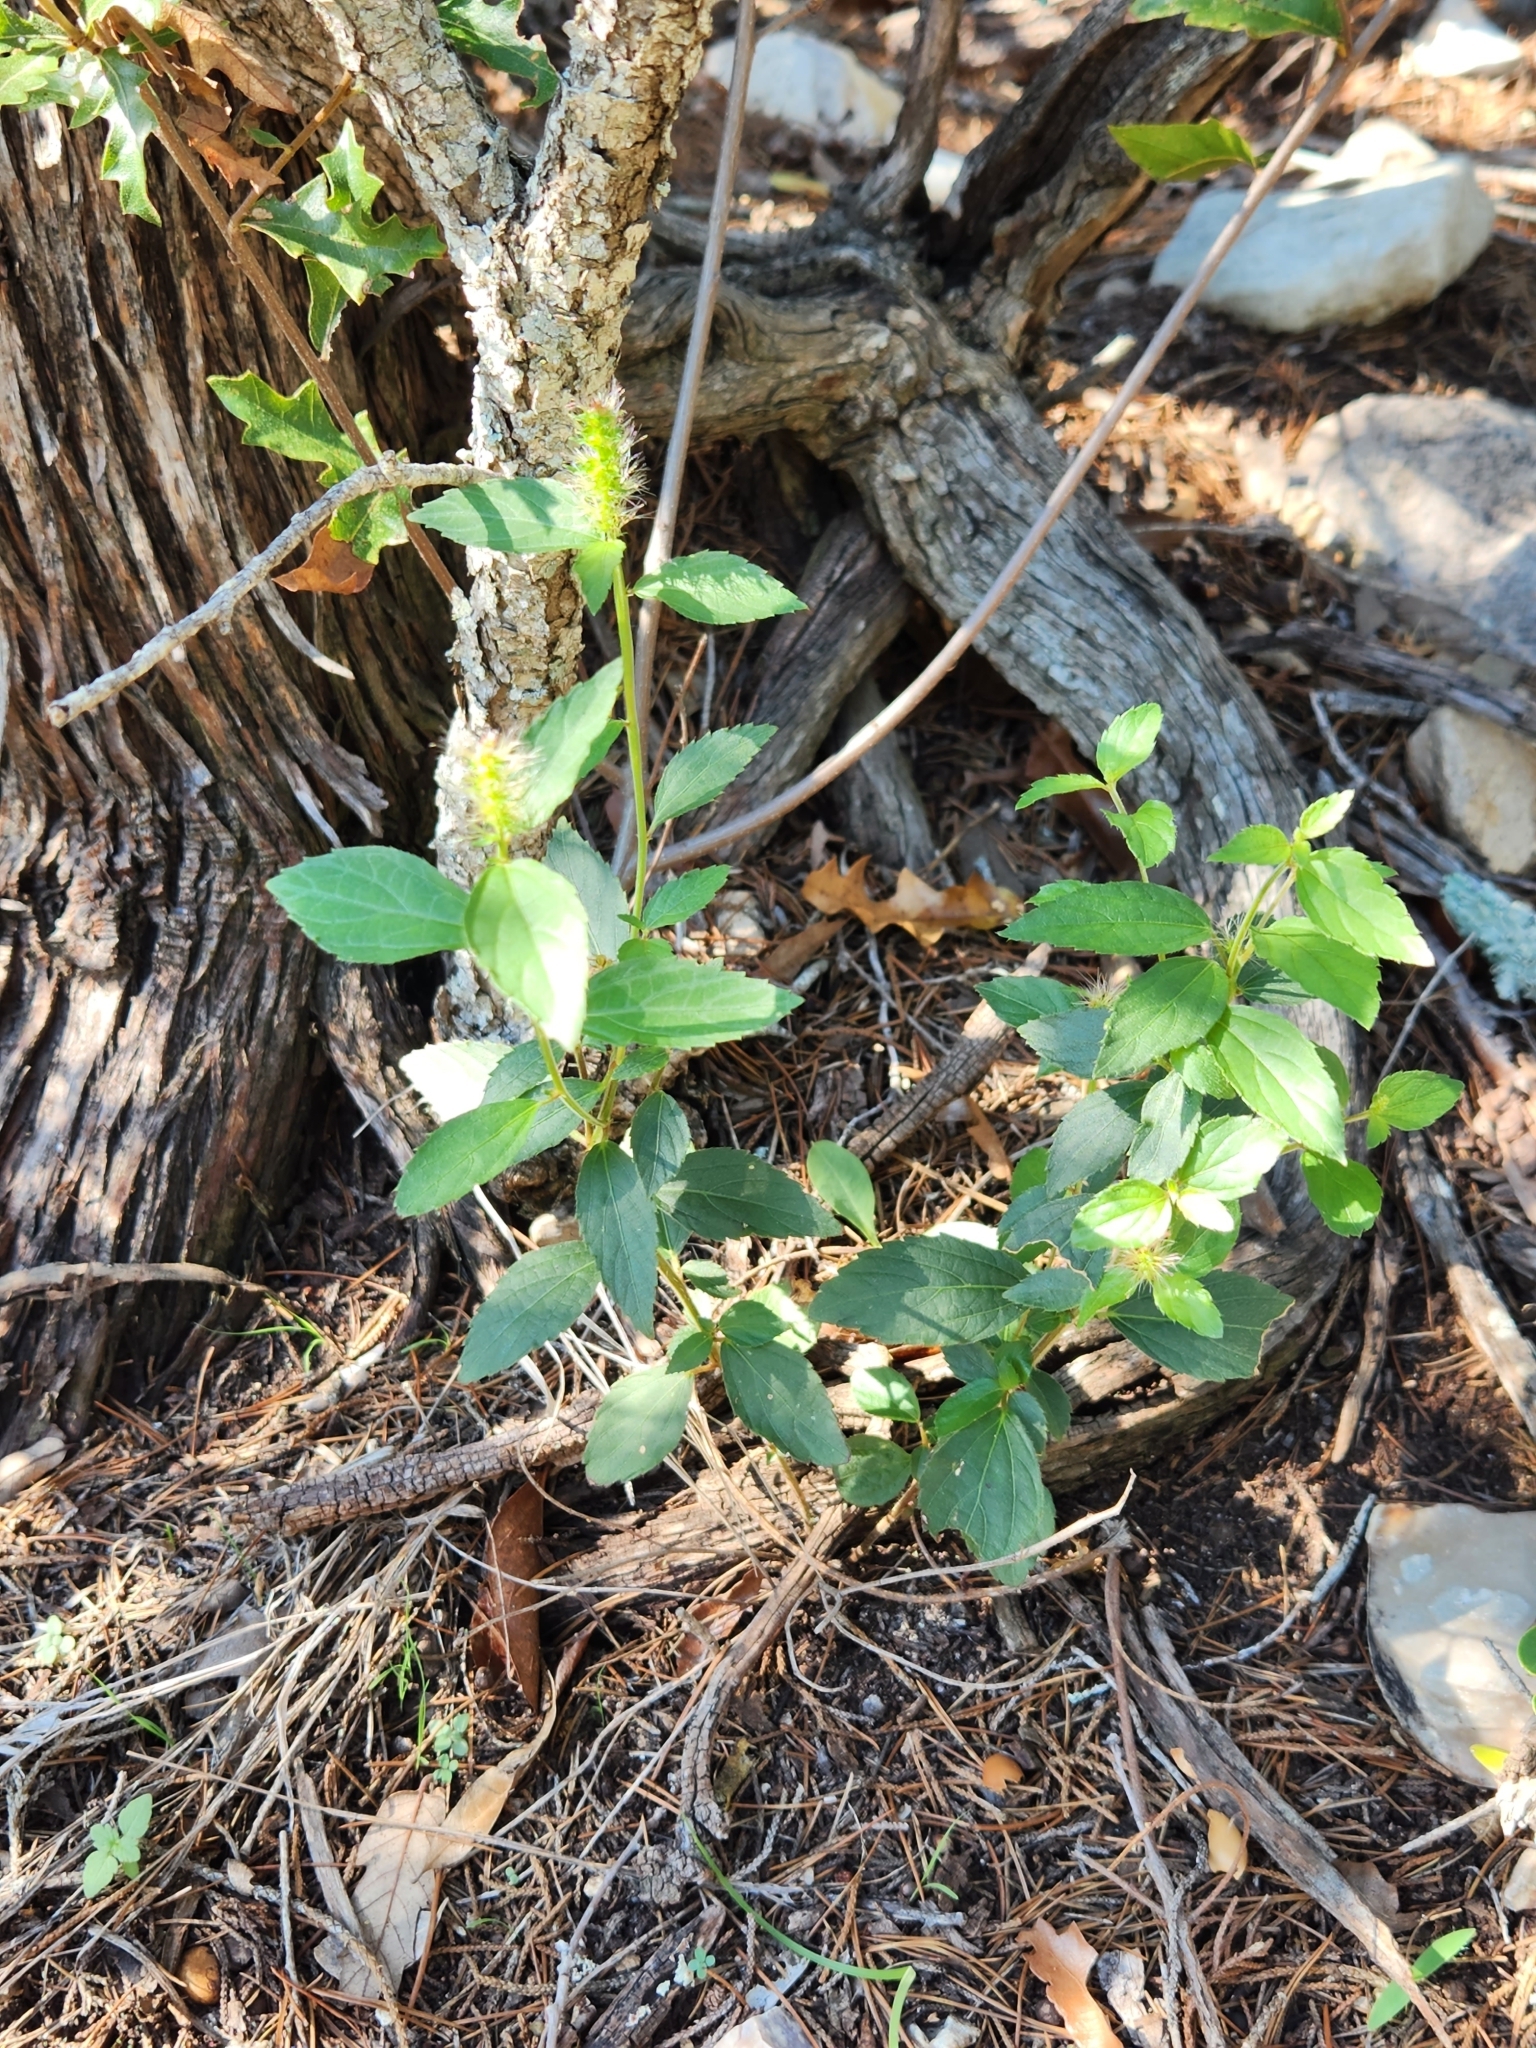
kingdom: Plantae
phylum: Tracheophyta
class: Magnoliopsida
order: Malpighiales
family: Euphorbiaceae
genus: Acalypha
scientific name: Acalypha phleoides
